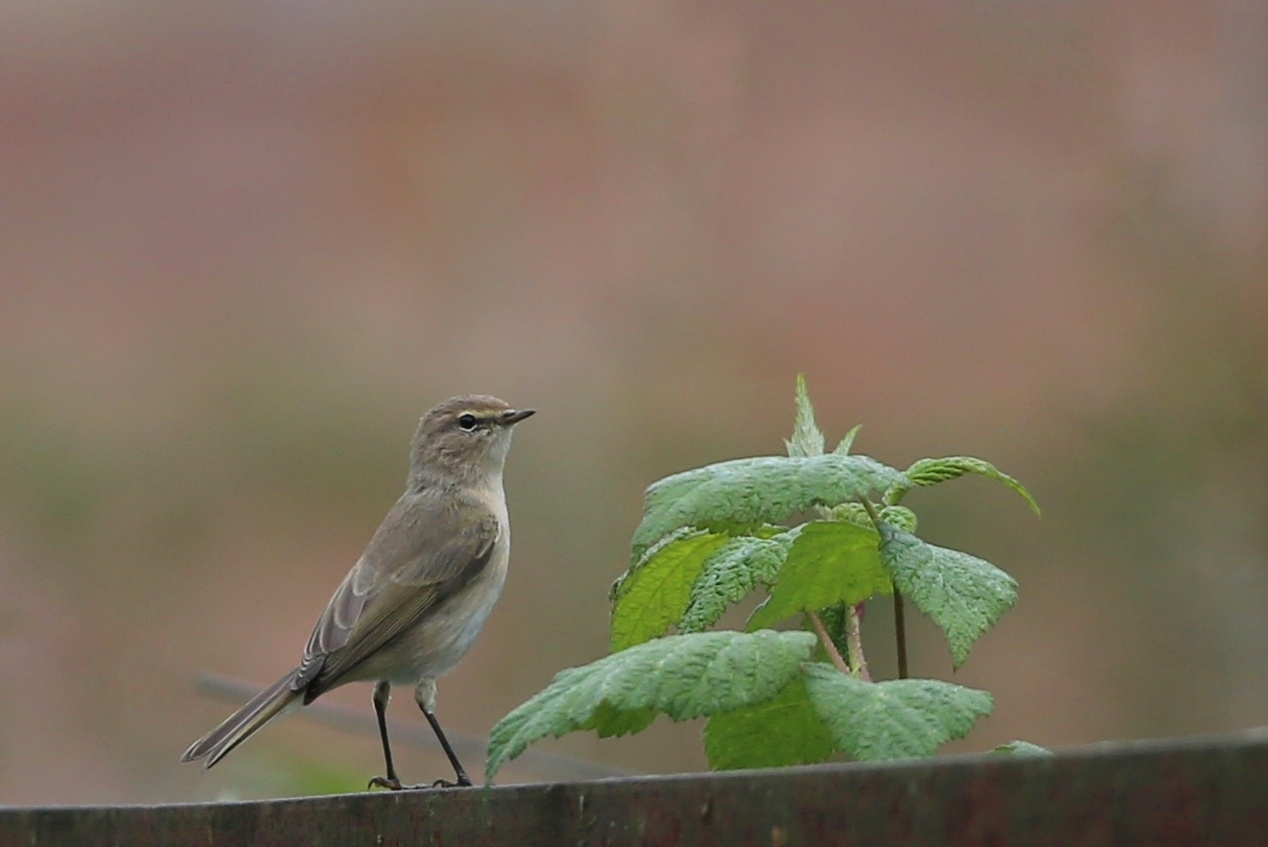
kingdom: Animalia
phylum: Chordata
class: Aves
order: Passeriformes
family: Phylloscopidae
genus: Phylloscopus
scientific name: Phylloscopus collybita
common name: Common chiffchaff
